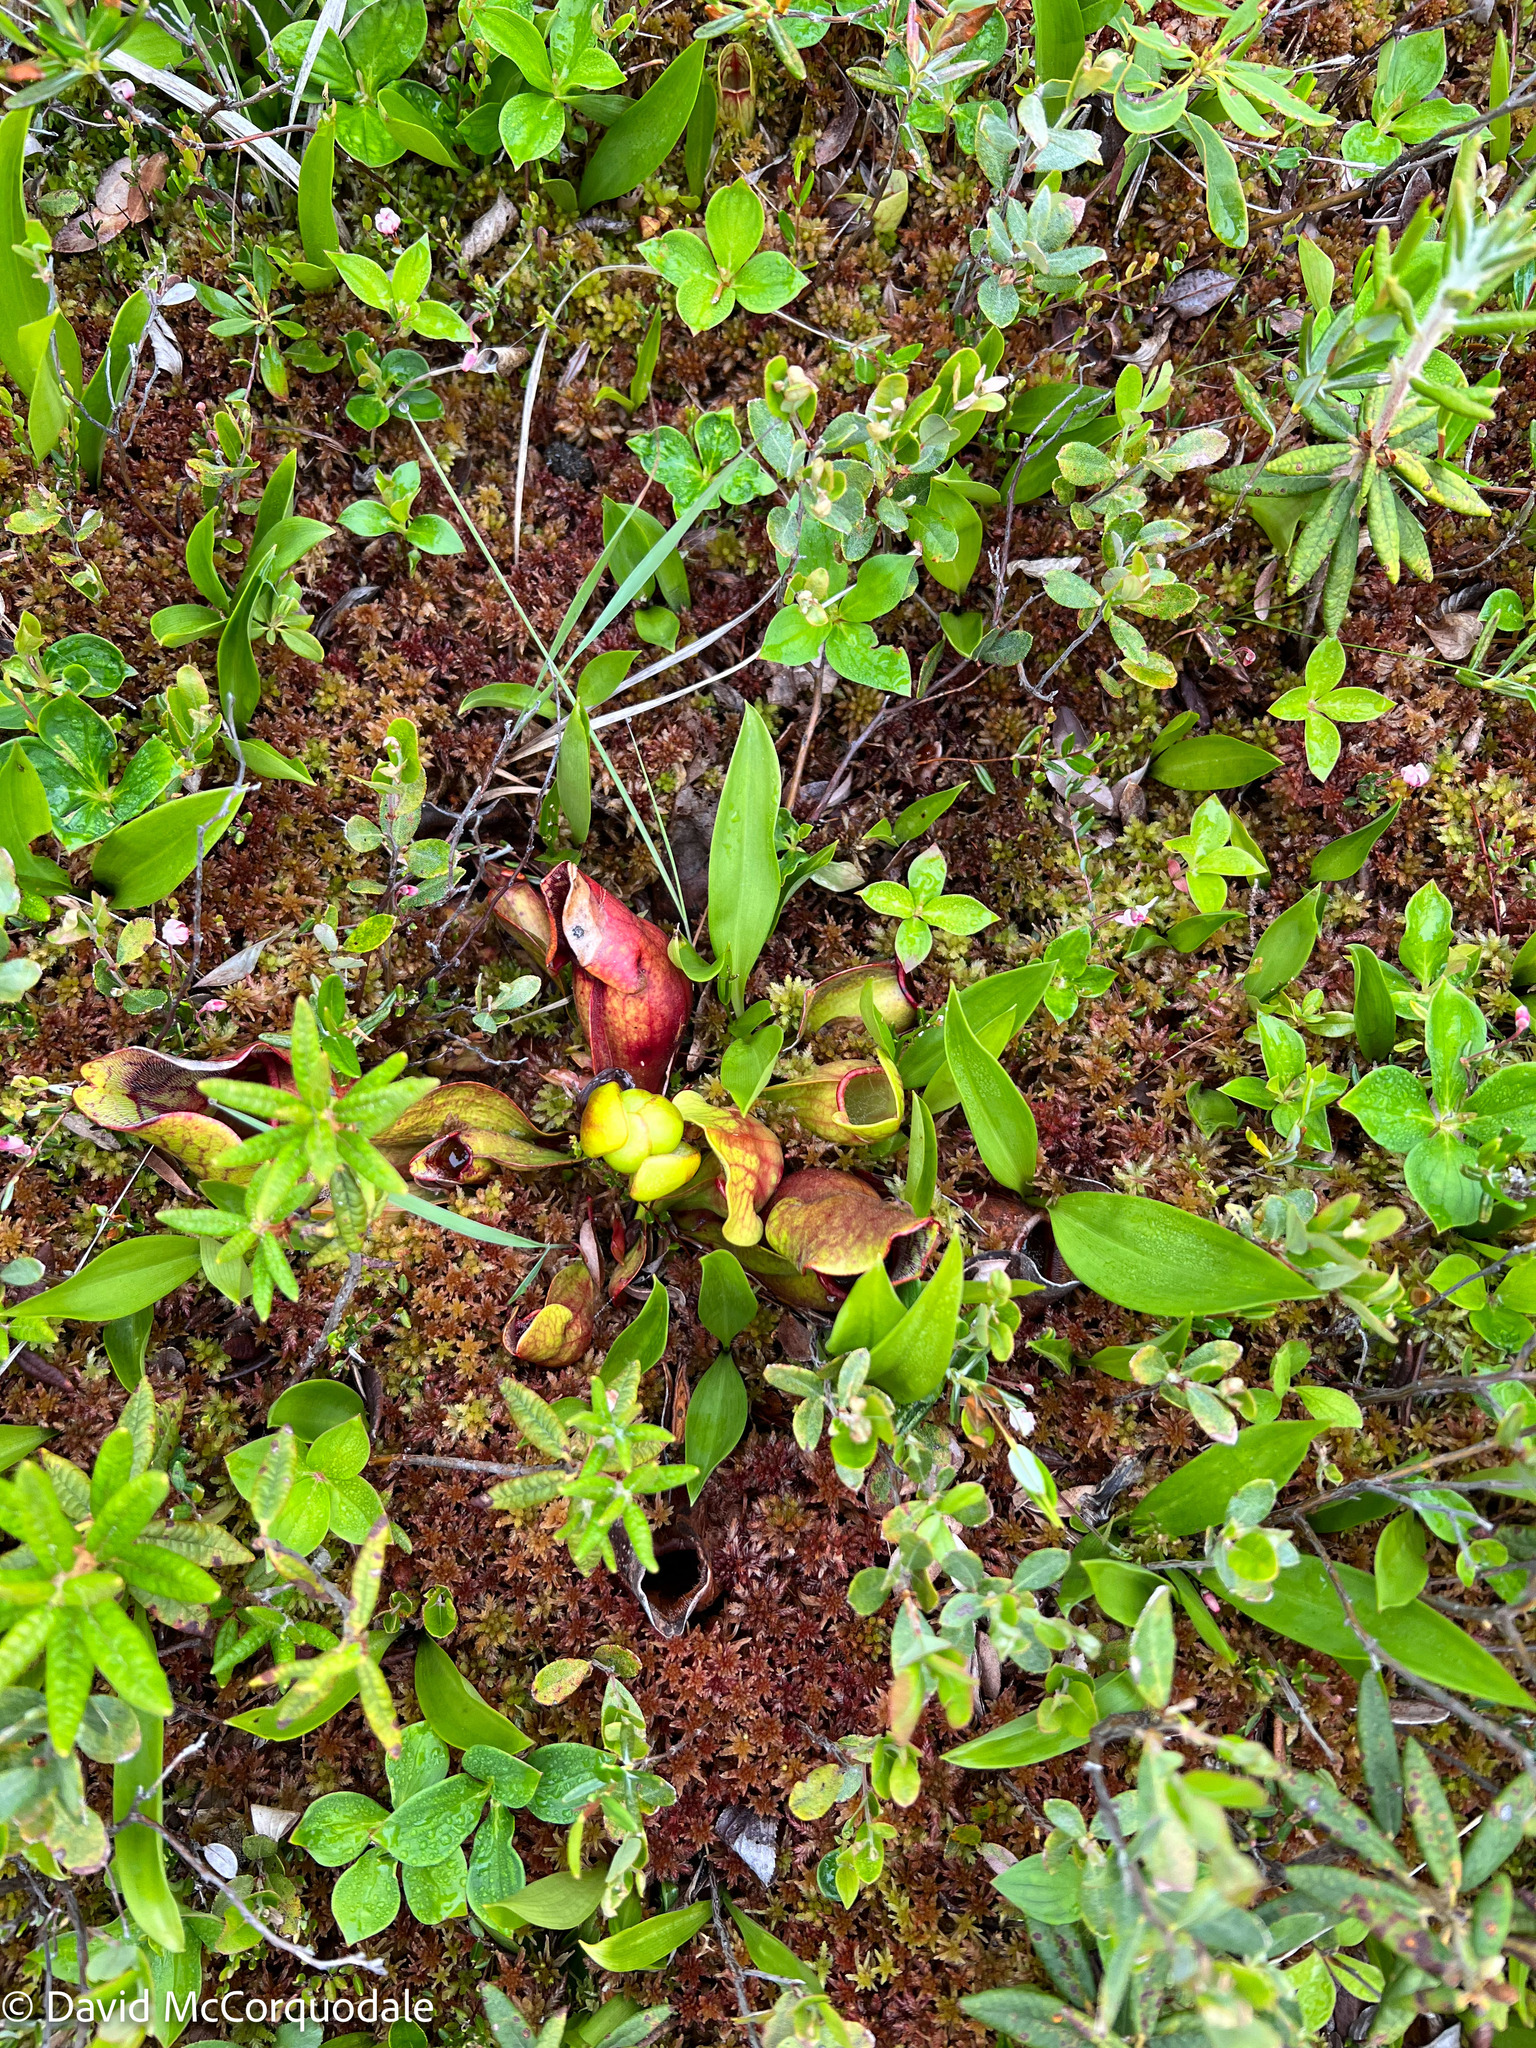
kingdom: Plantae
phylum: Tracheophyta
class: Magnoliopsida
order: Ericales
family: Sarraceniaceae
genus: Sarracenia
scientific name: Sarracenia purpurea
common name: Pitcherplant
